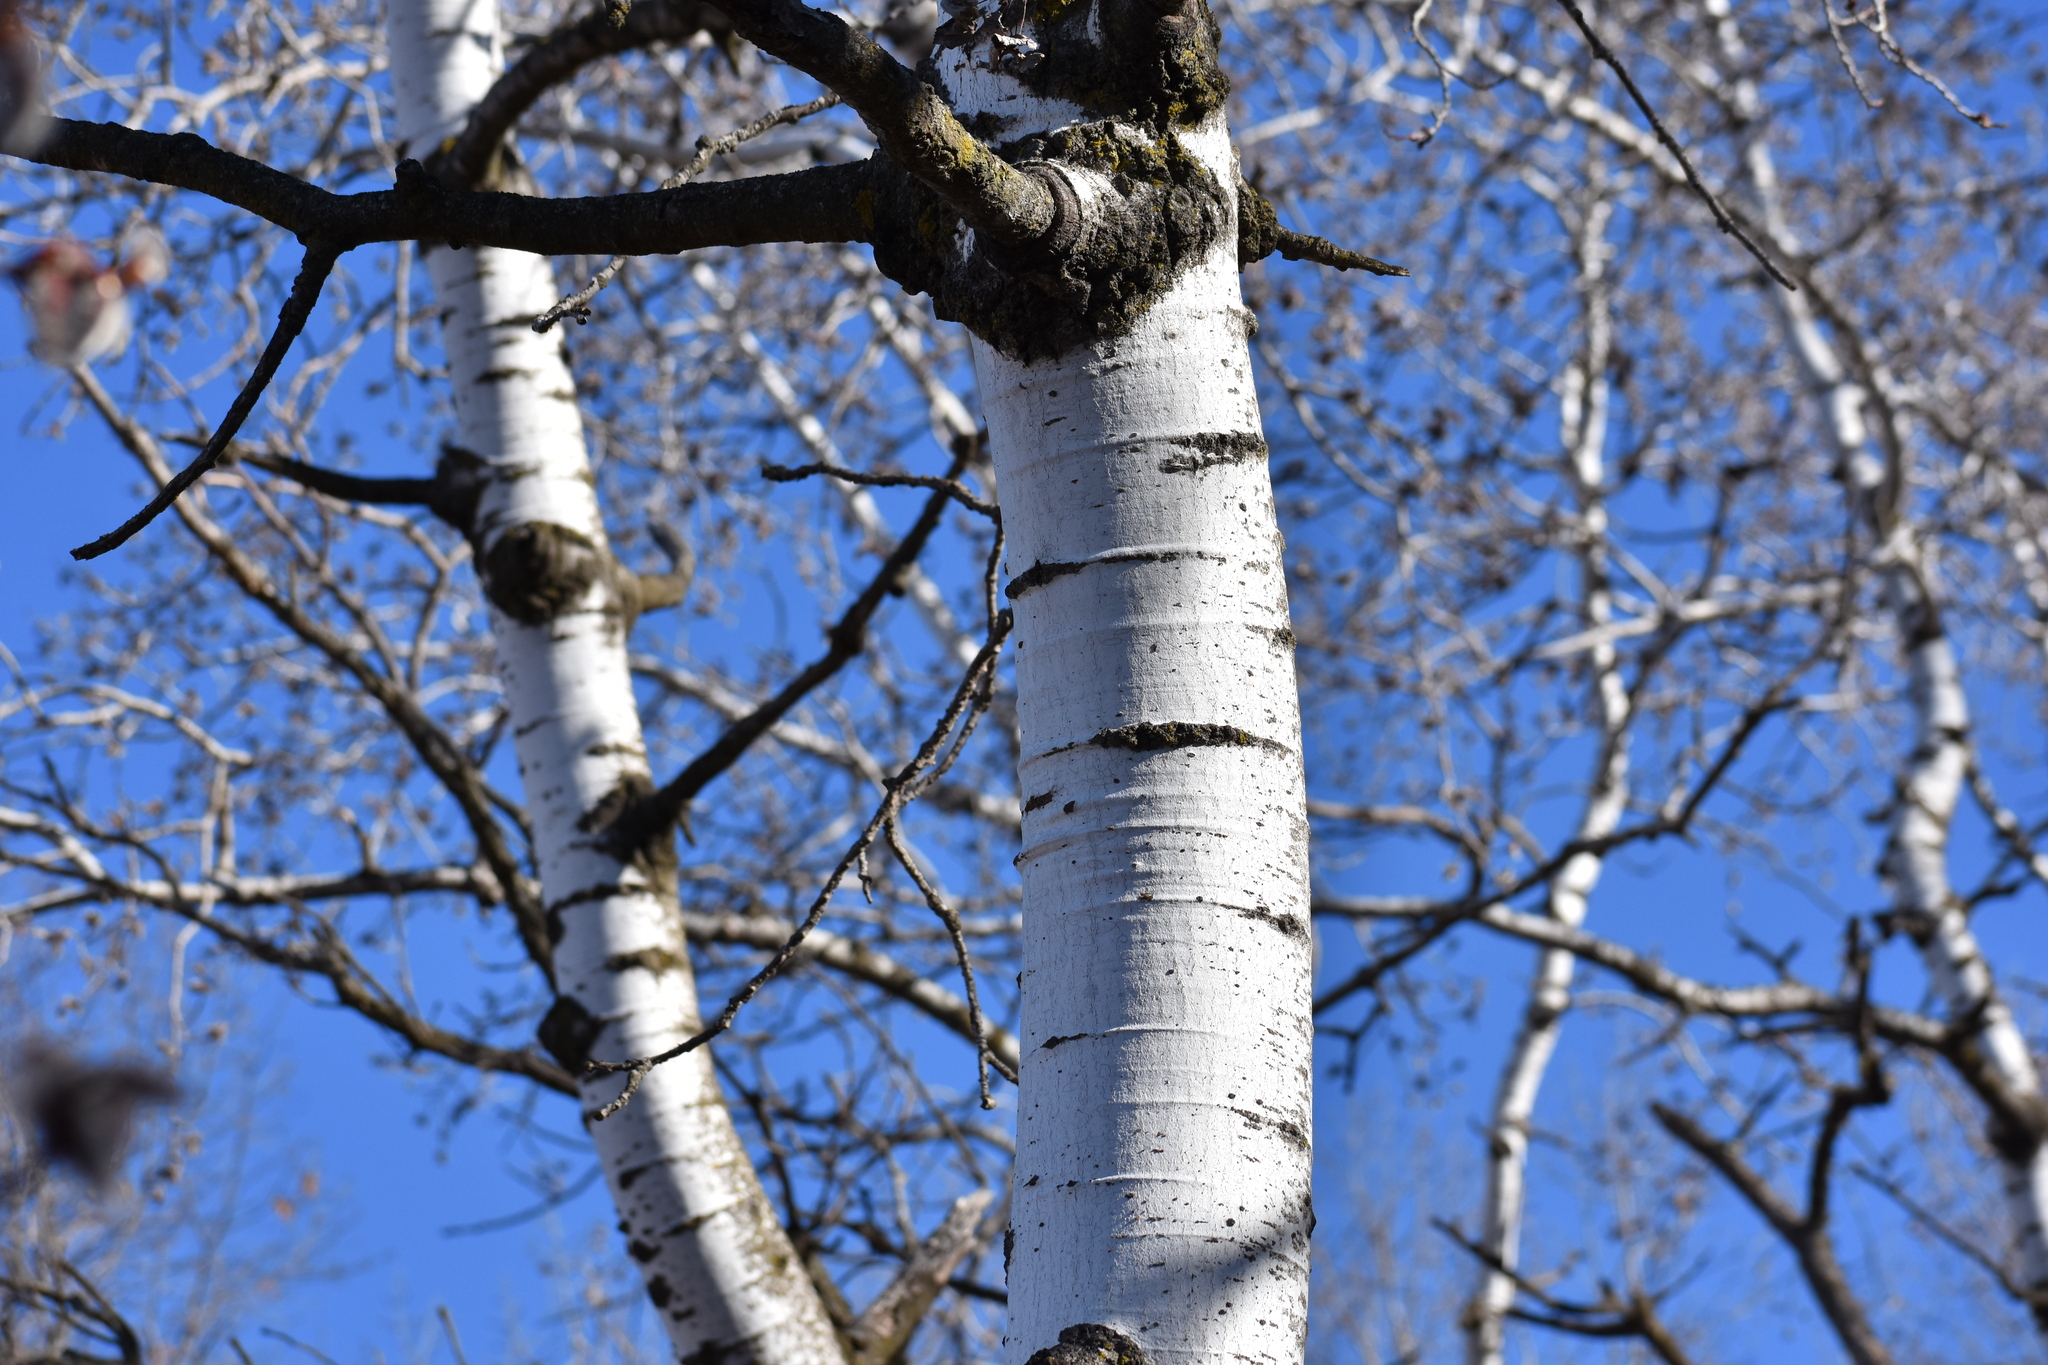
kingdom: Plantae
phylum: Tracheophyta
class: Magnoliopsida
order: Malpighiales
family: Salicaceae
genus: Populus
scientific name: Populus tremuloides
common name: Quaking aspen
